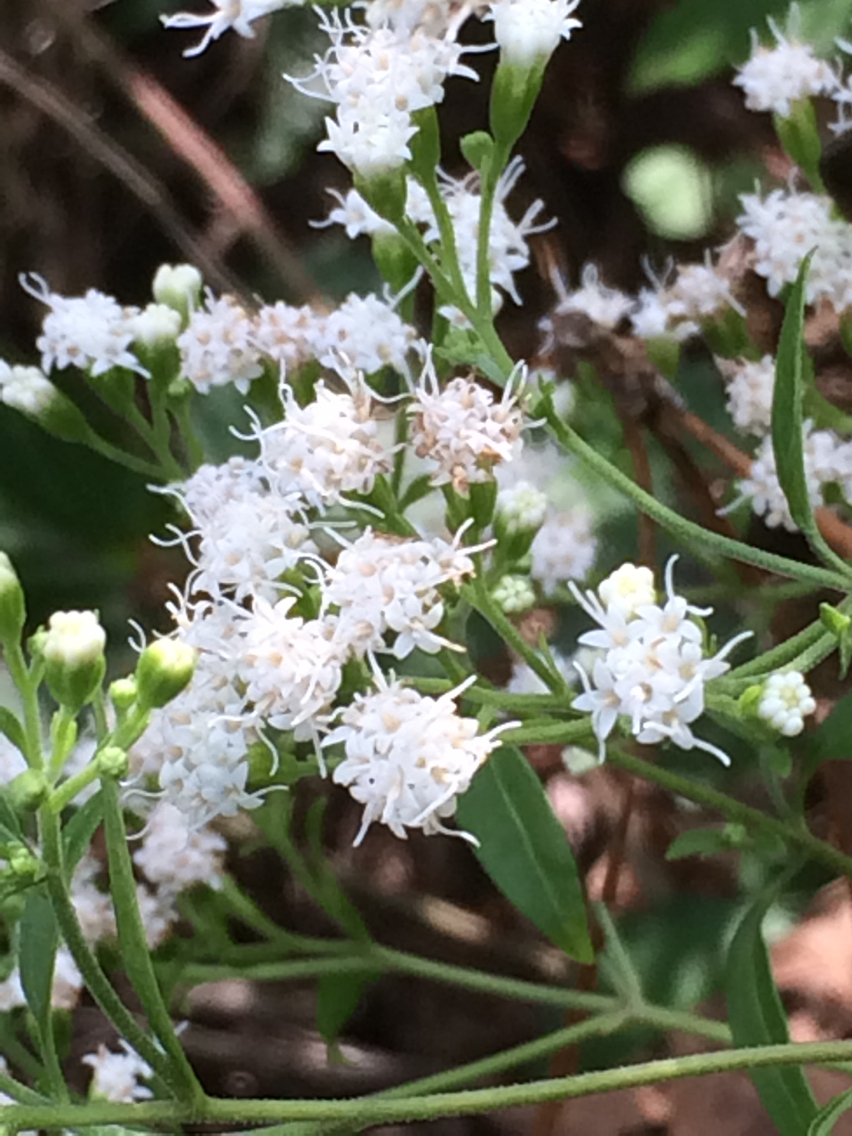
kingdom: Plantae
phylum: Tracheophyta
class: Magnoliopsida
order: Asterales
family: Asteraceae
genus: Ageratina
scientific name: Ageratina altissima
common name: White snakeroot
